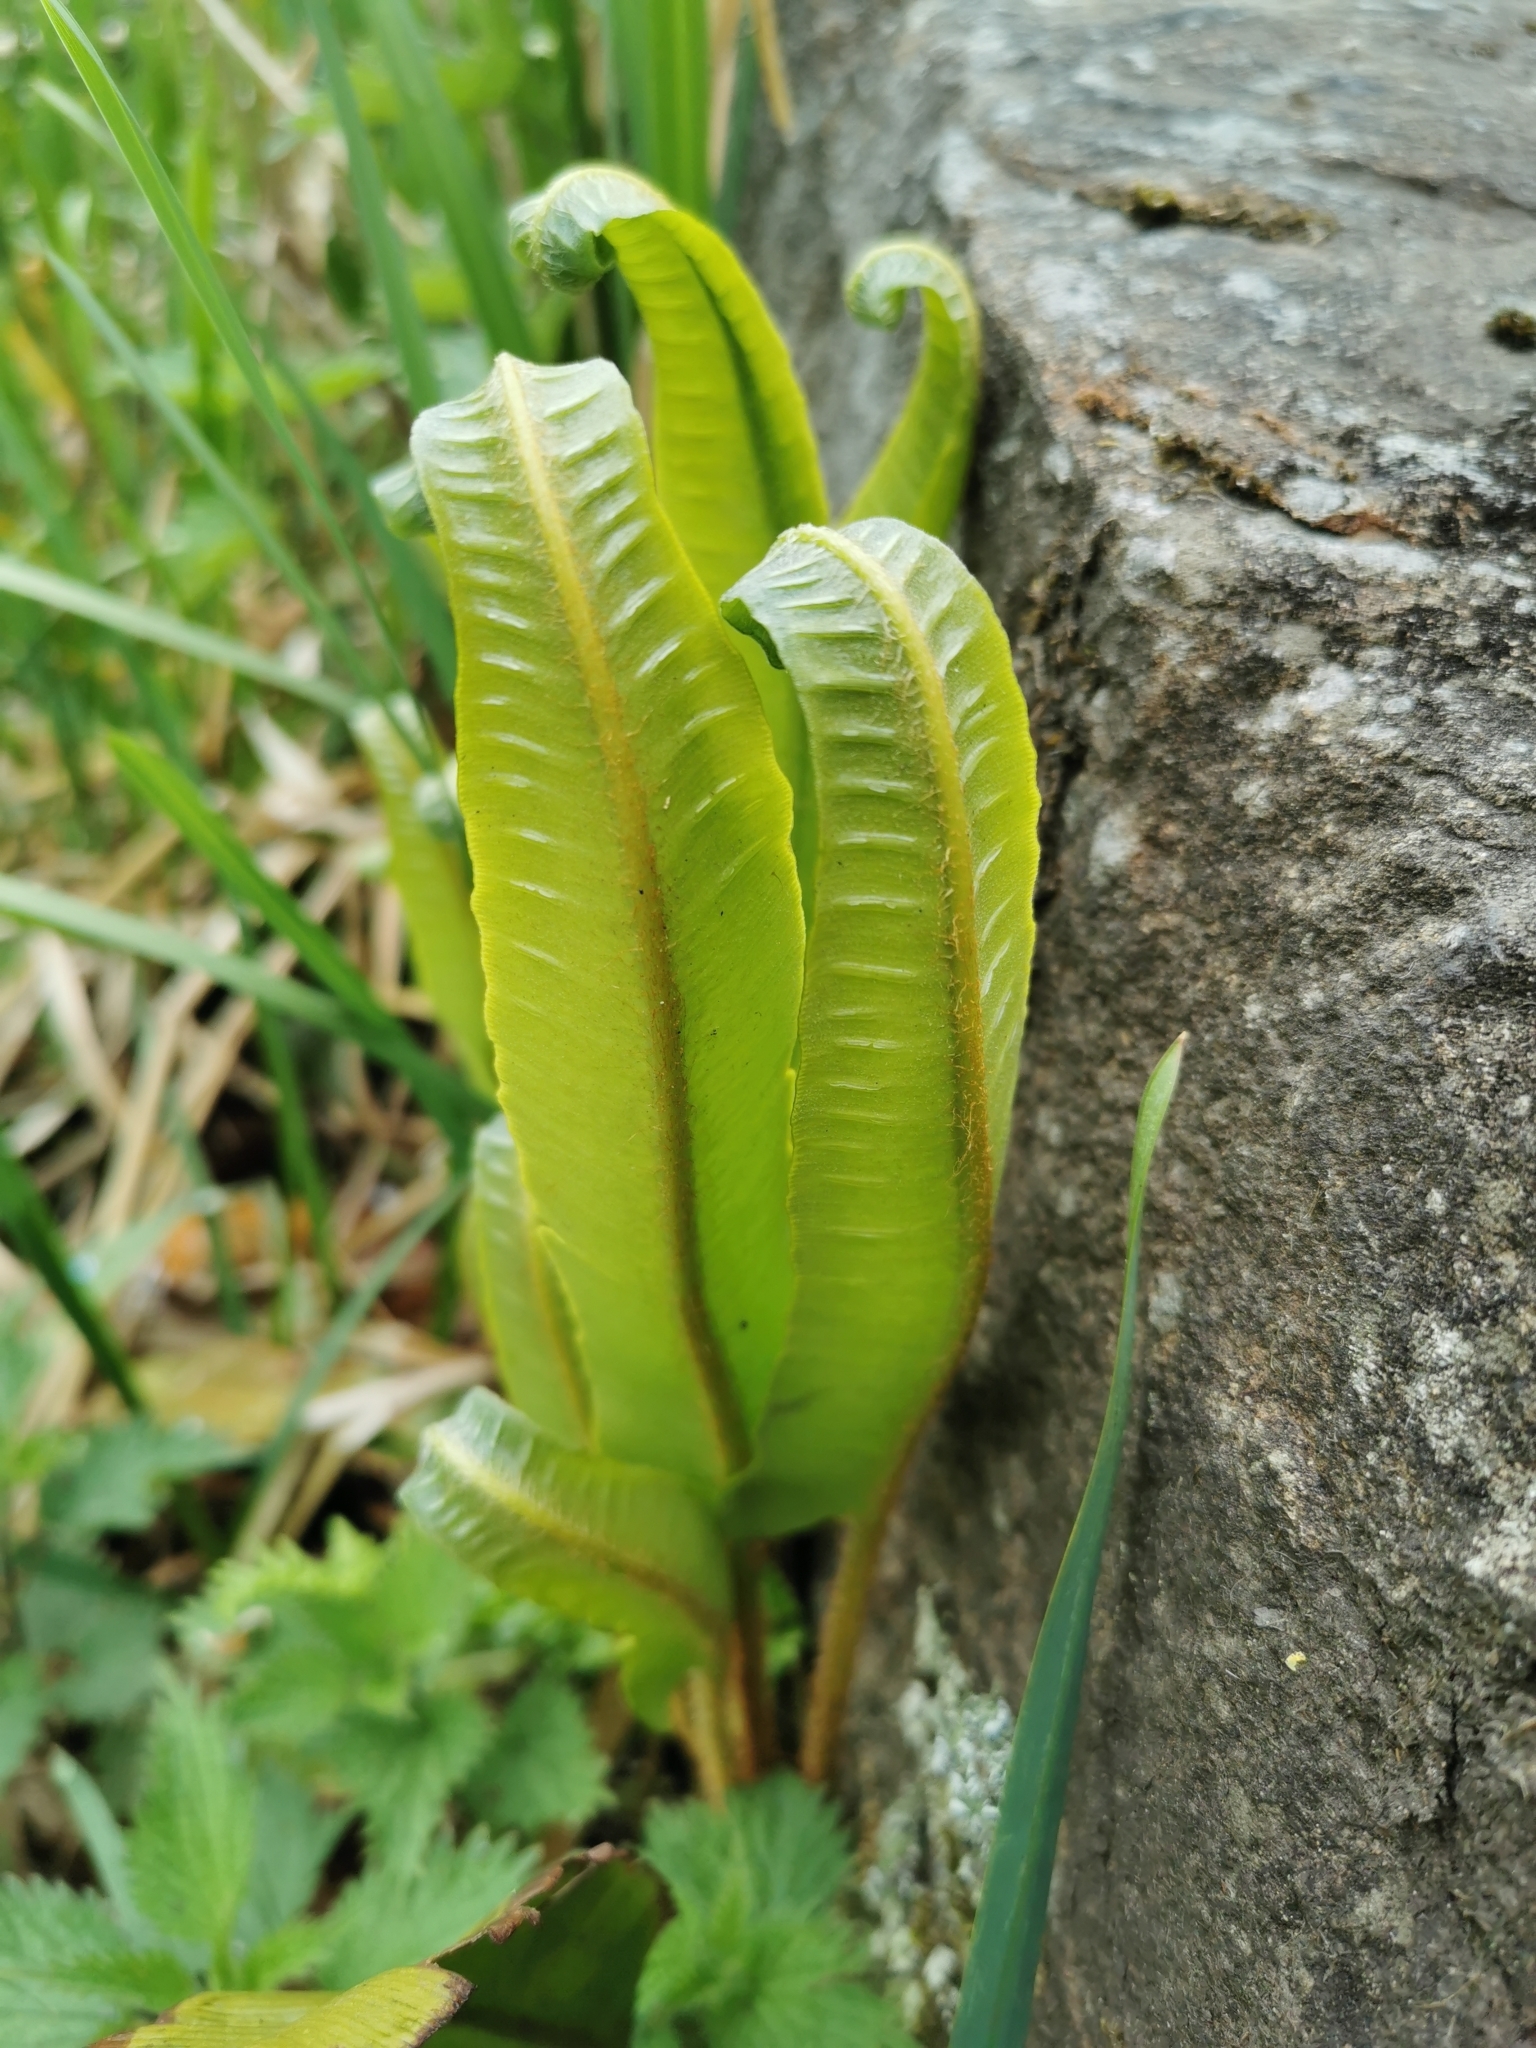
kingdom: Plantae
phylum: Tracheophyta
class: Polypodiopsida
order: Polypodiales
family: Aspleniaceae
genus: Asplenium
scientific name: Asplenium scolopendrium
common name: Hart's-tongue fern
